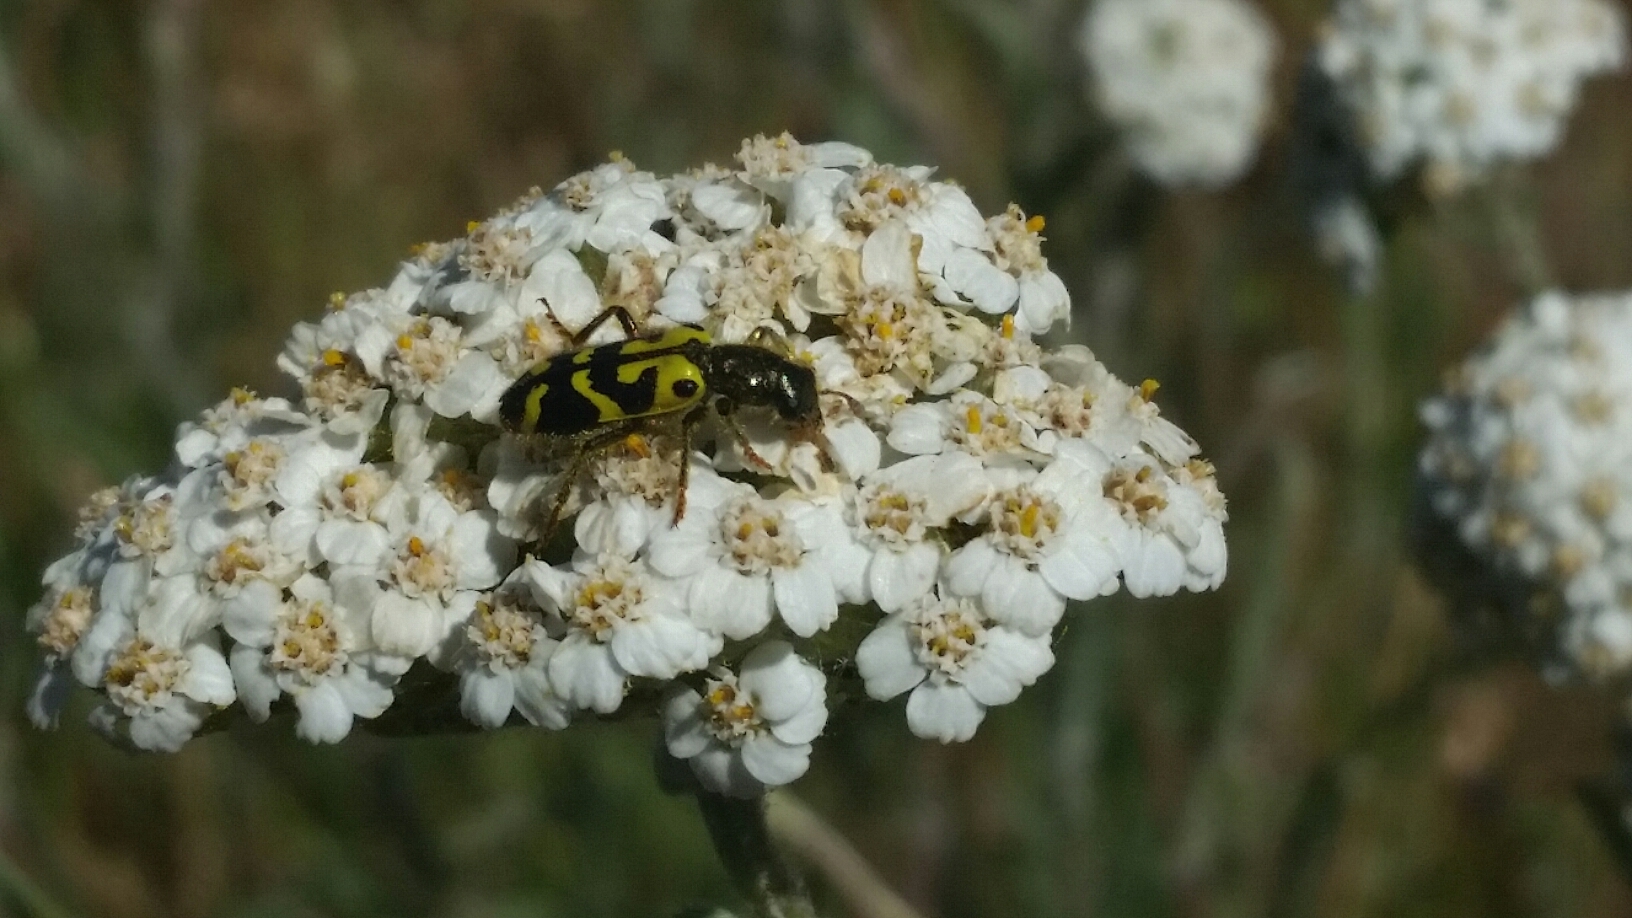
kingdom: Animalia
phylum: Arthropoda
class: Insecta
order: Coleoptera
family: Cleridae
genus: Trichodes
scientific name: Trichodes ornatus
